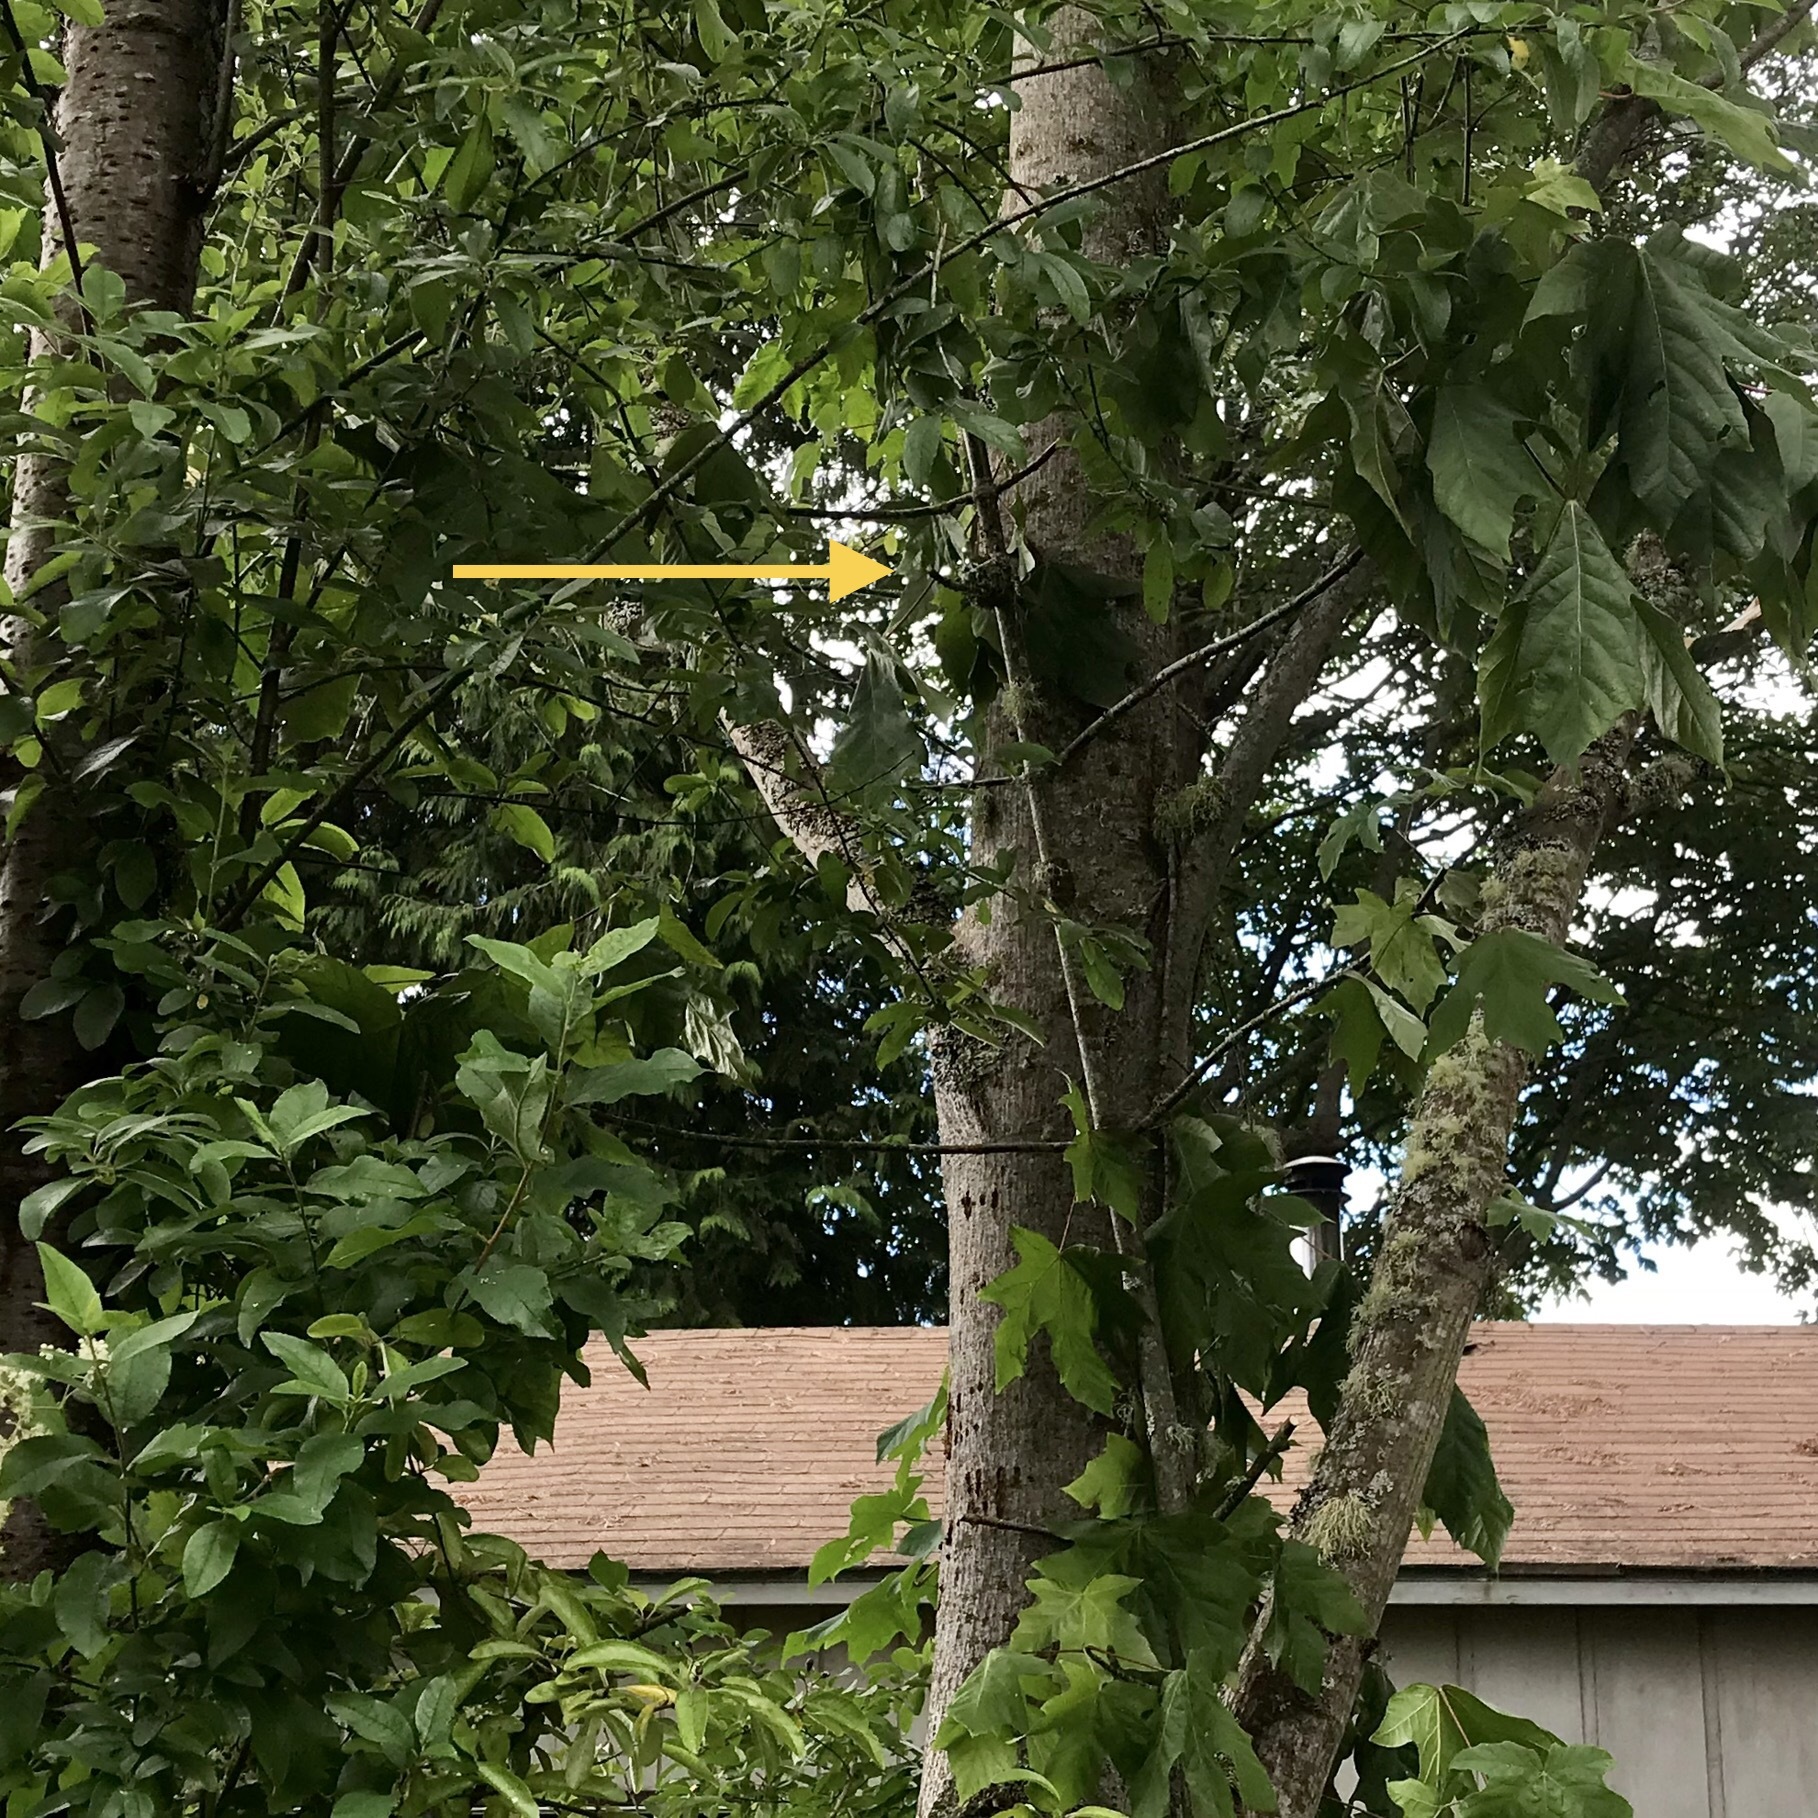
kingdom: Animalia
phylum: Chordata
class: Aves
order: Apodiformes
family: Trochilidae
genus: Selasphorus
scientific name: Selasphorus rufus
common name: Rufous hummingbird
